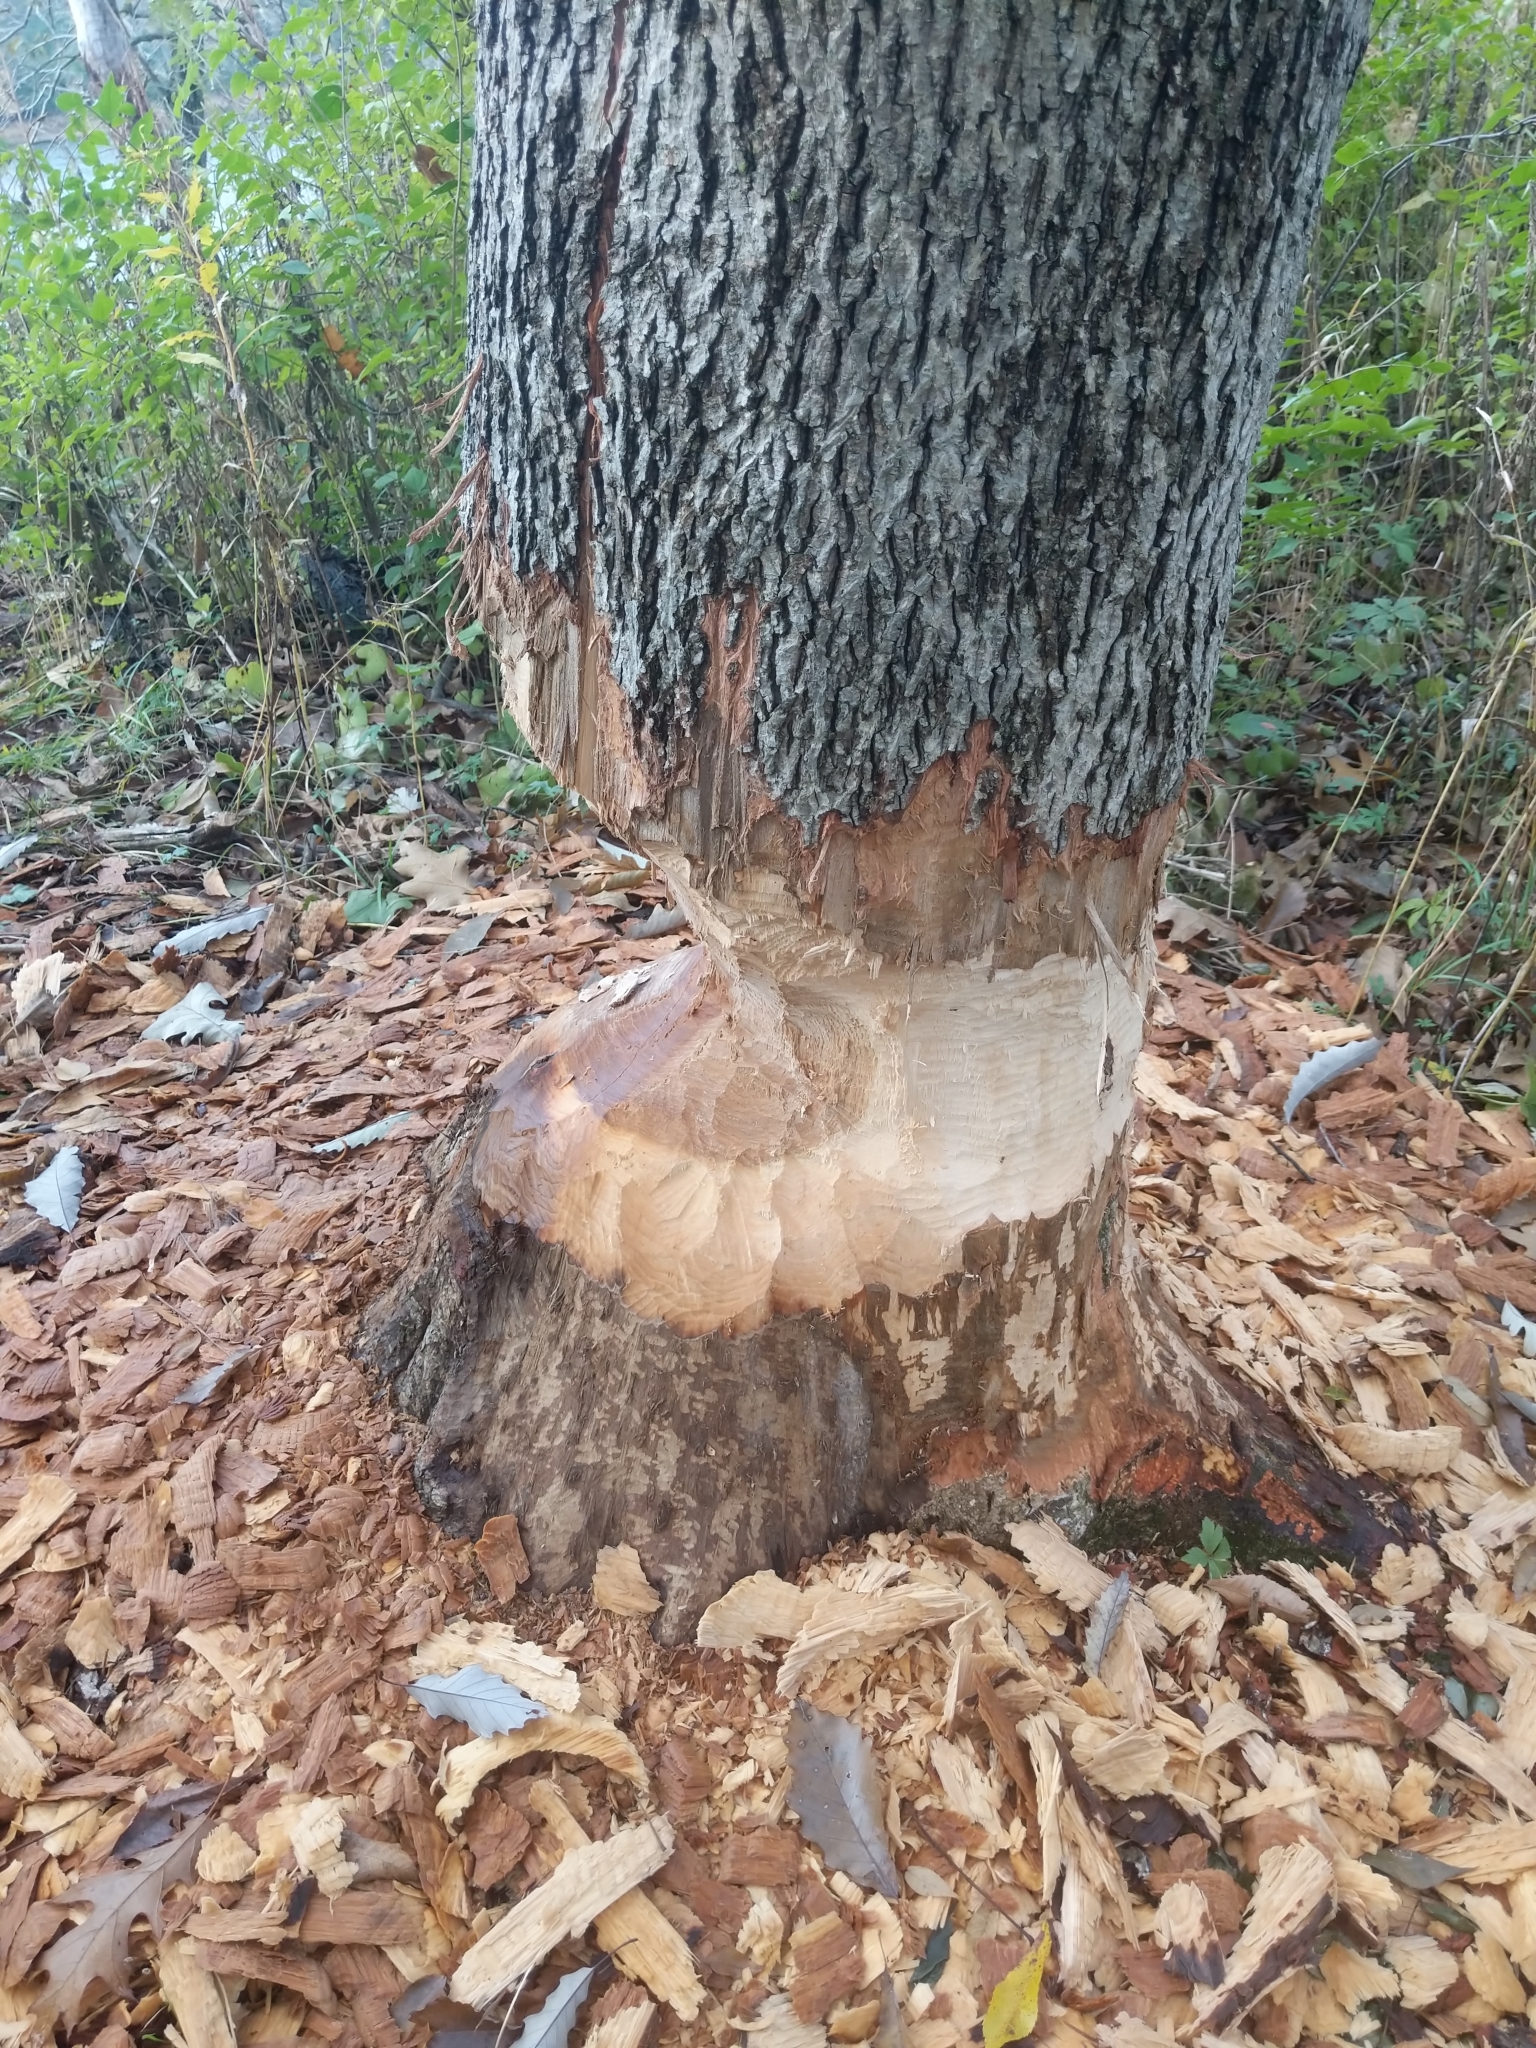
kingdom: Animalia
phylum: Chordata
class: Mammalia
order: Rodentia
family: Castoridae
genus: Castor
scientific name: Castor canadensis
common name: American beaver
